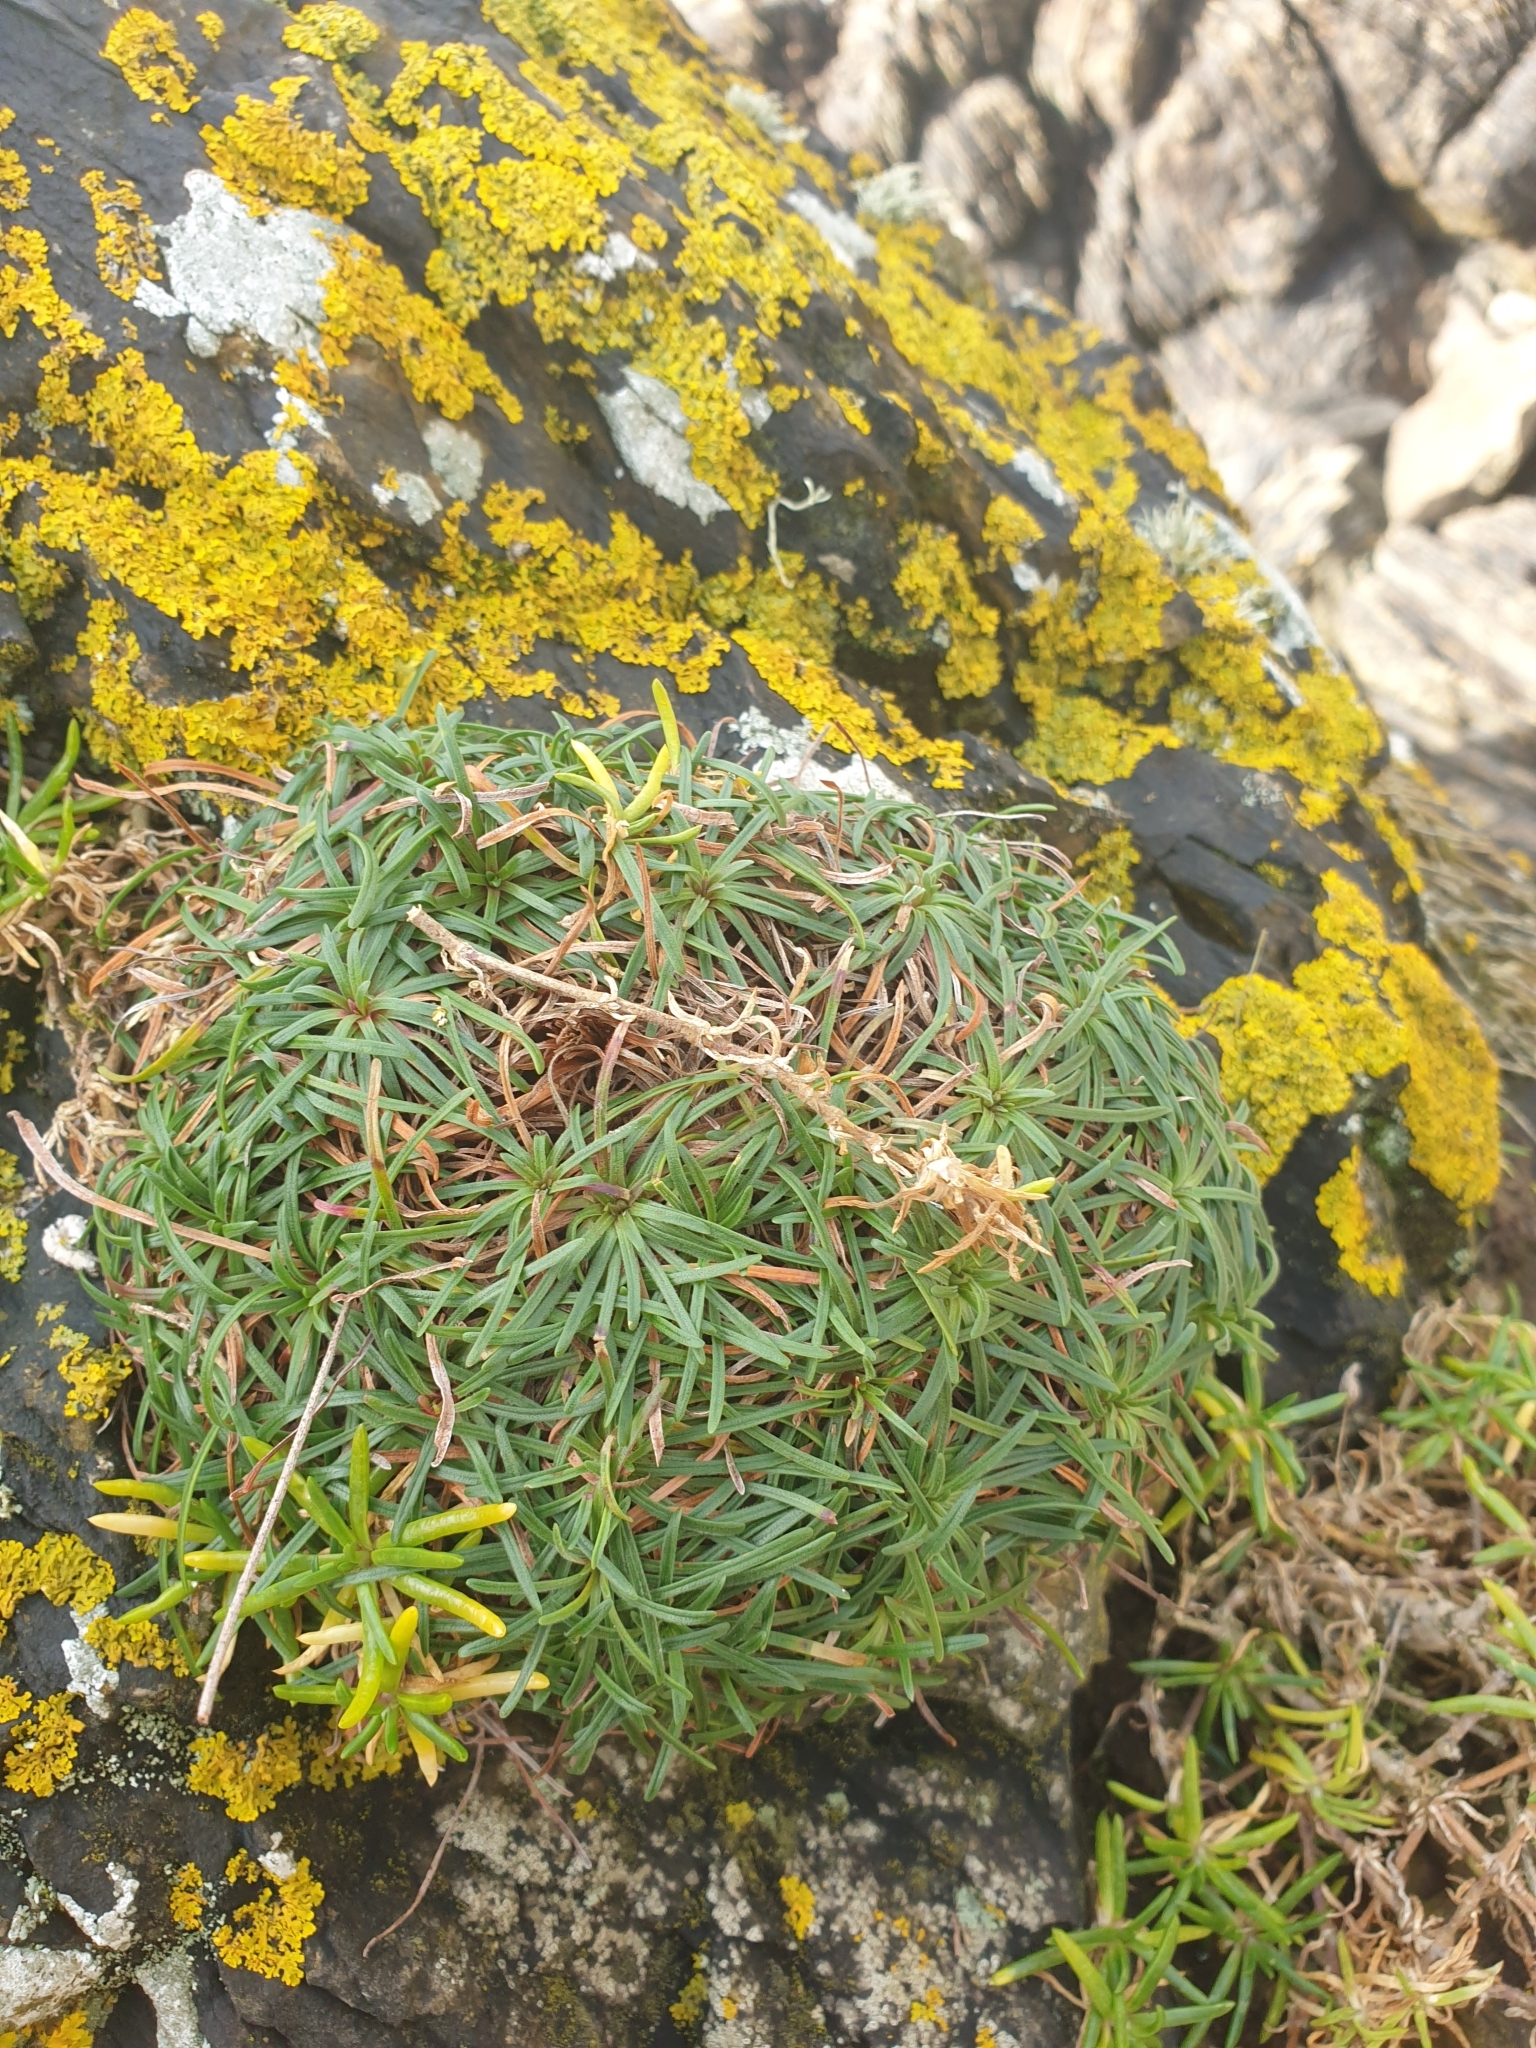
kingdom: Plantae
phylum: Tracheophyta
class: Magnoliopsida
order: Caryophyllales
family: Plumbaginaceae
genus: Armeria
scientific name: Armeria maritima
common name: Thrift
